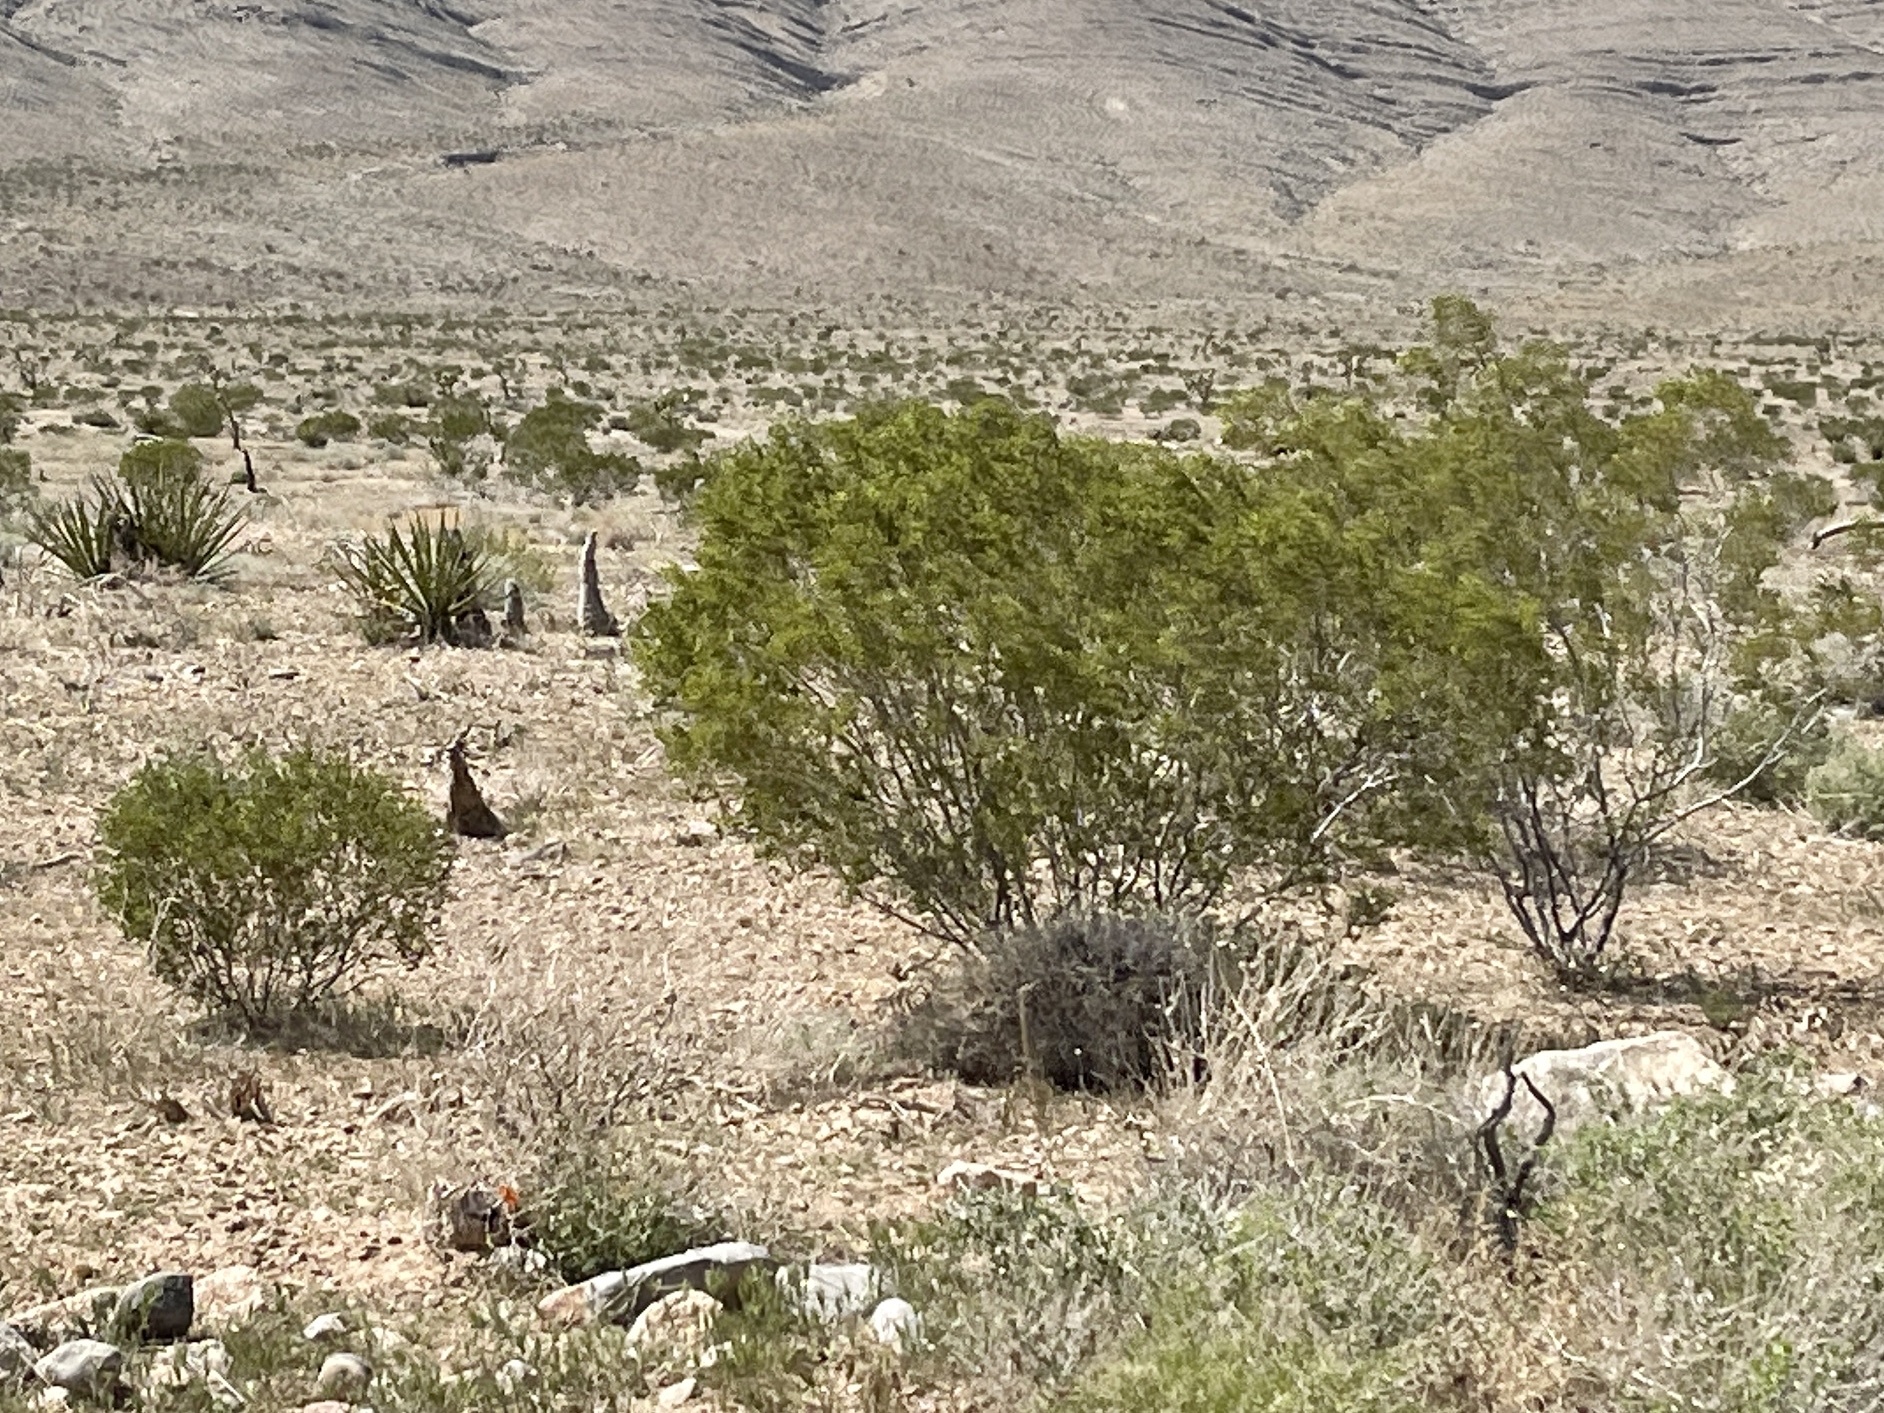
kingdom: Plantae
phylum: Tracheophyta
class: Magnoliopsida
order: Zygophyllales
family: Zygophyllaceae
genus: Larrea
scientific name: Larrea tridentata
